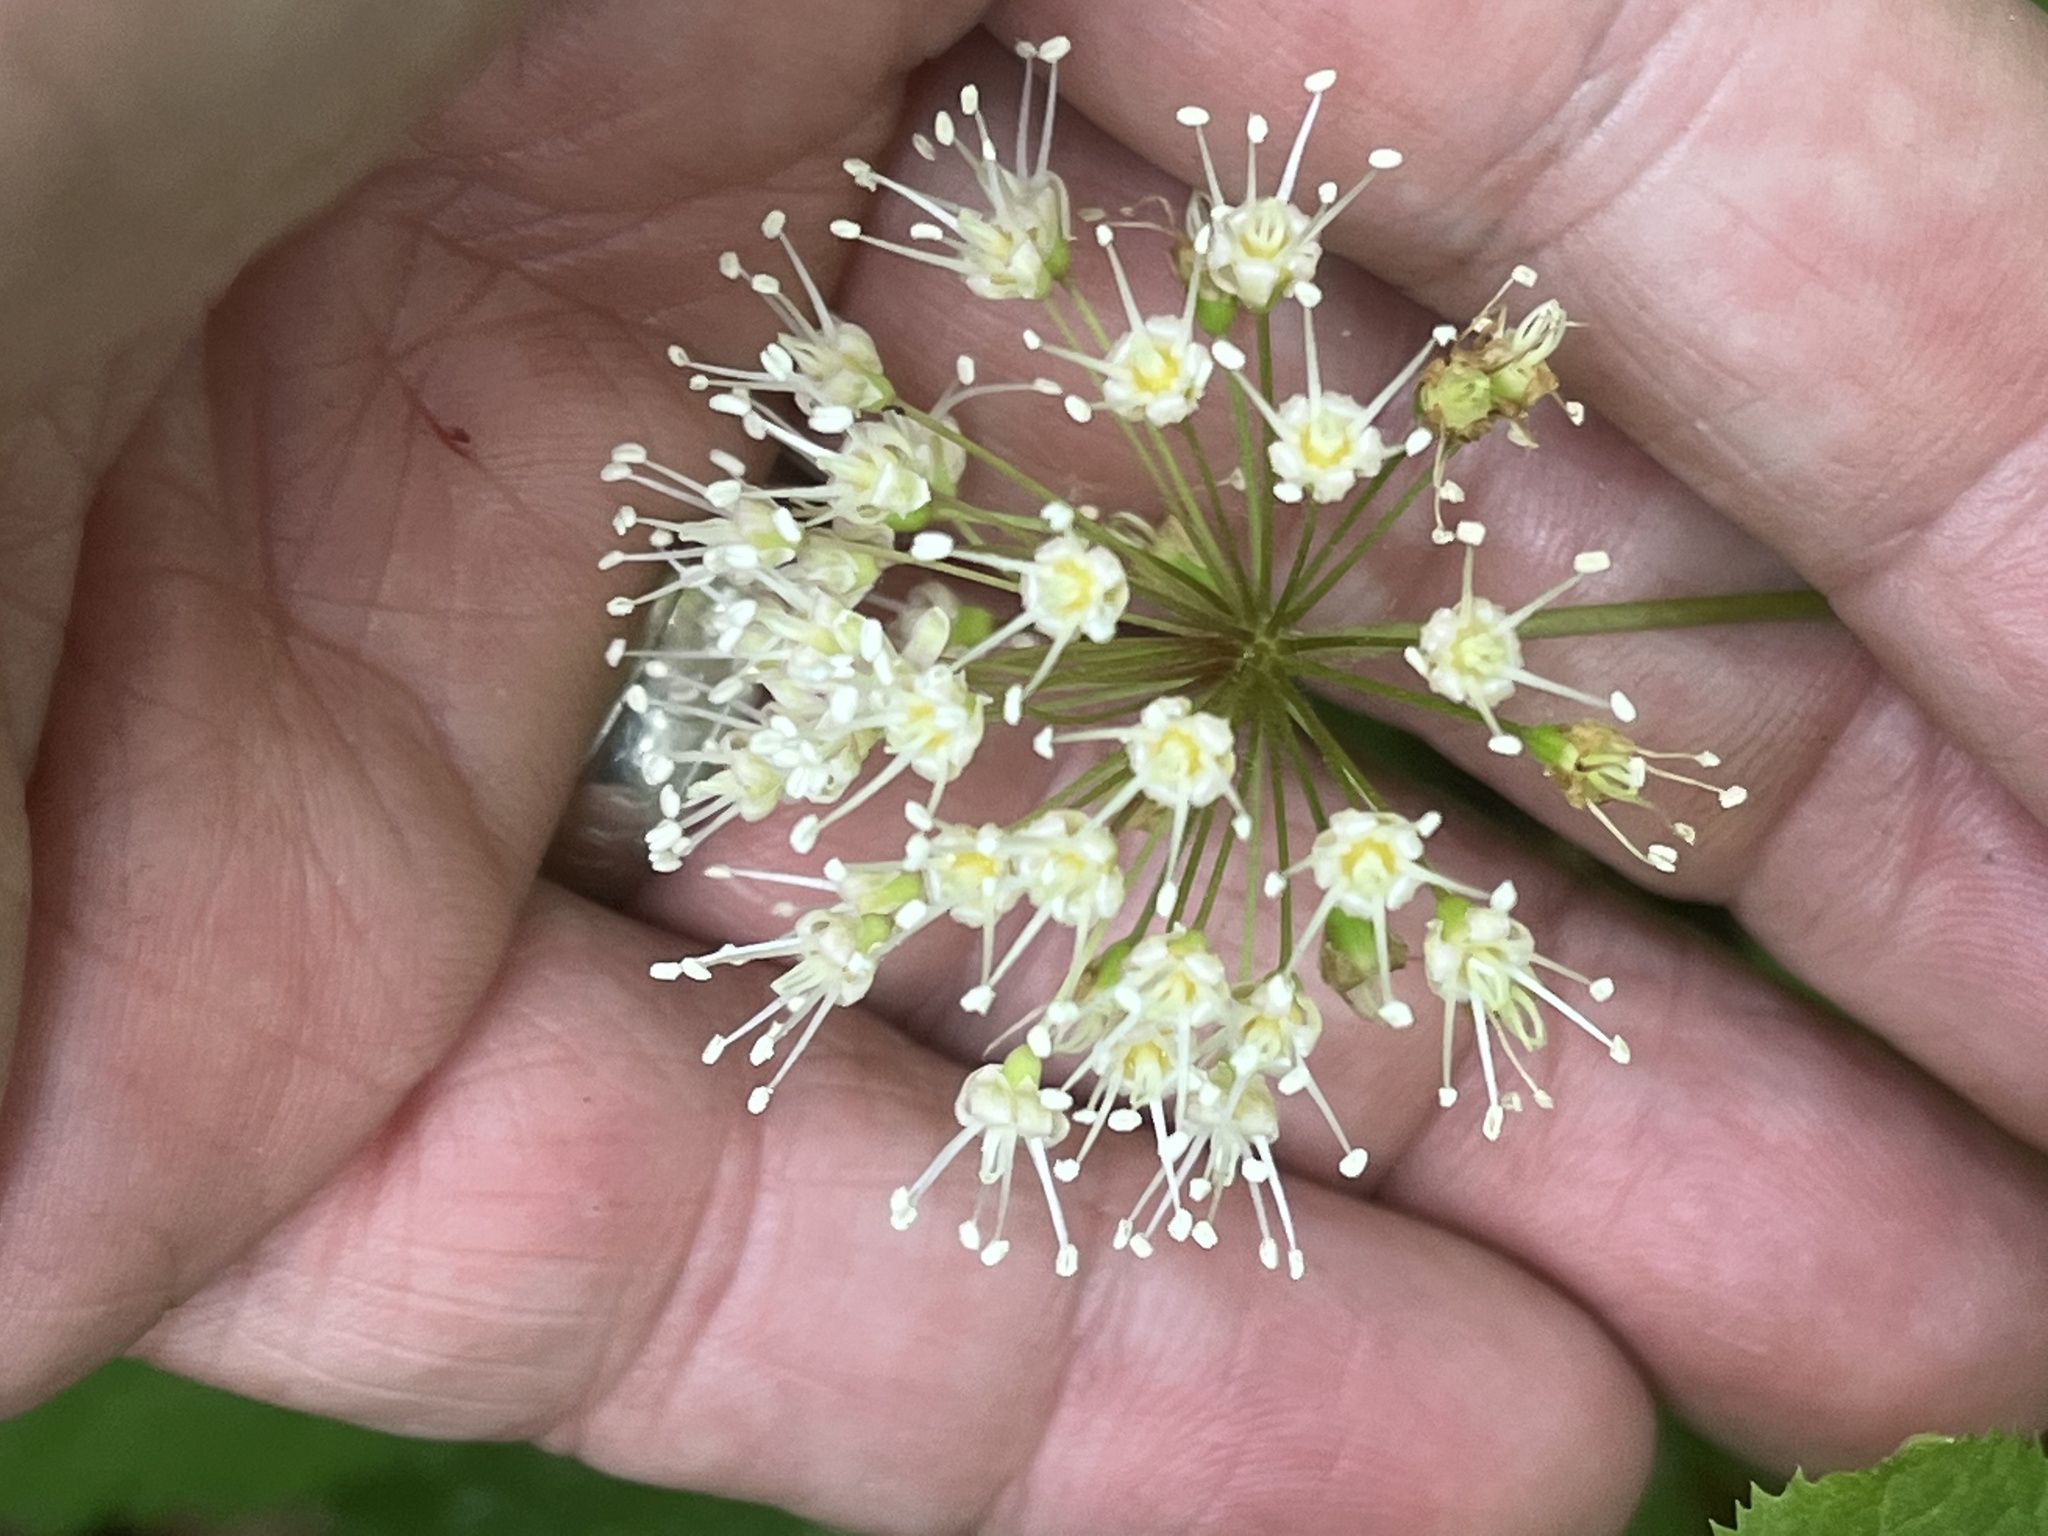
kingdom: Plantae
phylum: Tracheophyta
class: Magnoliopsida
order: Apiales
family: Araliaceae
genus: Aralia
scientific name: Aralia nudicaulis
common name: Wild sarsaparilla
